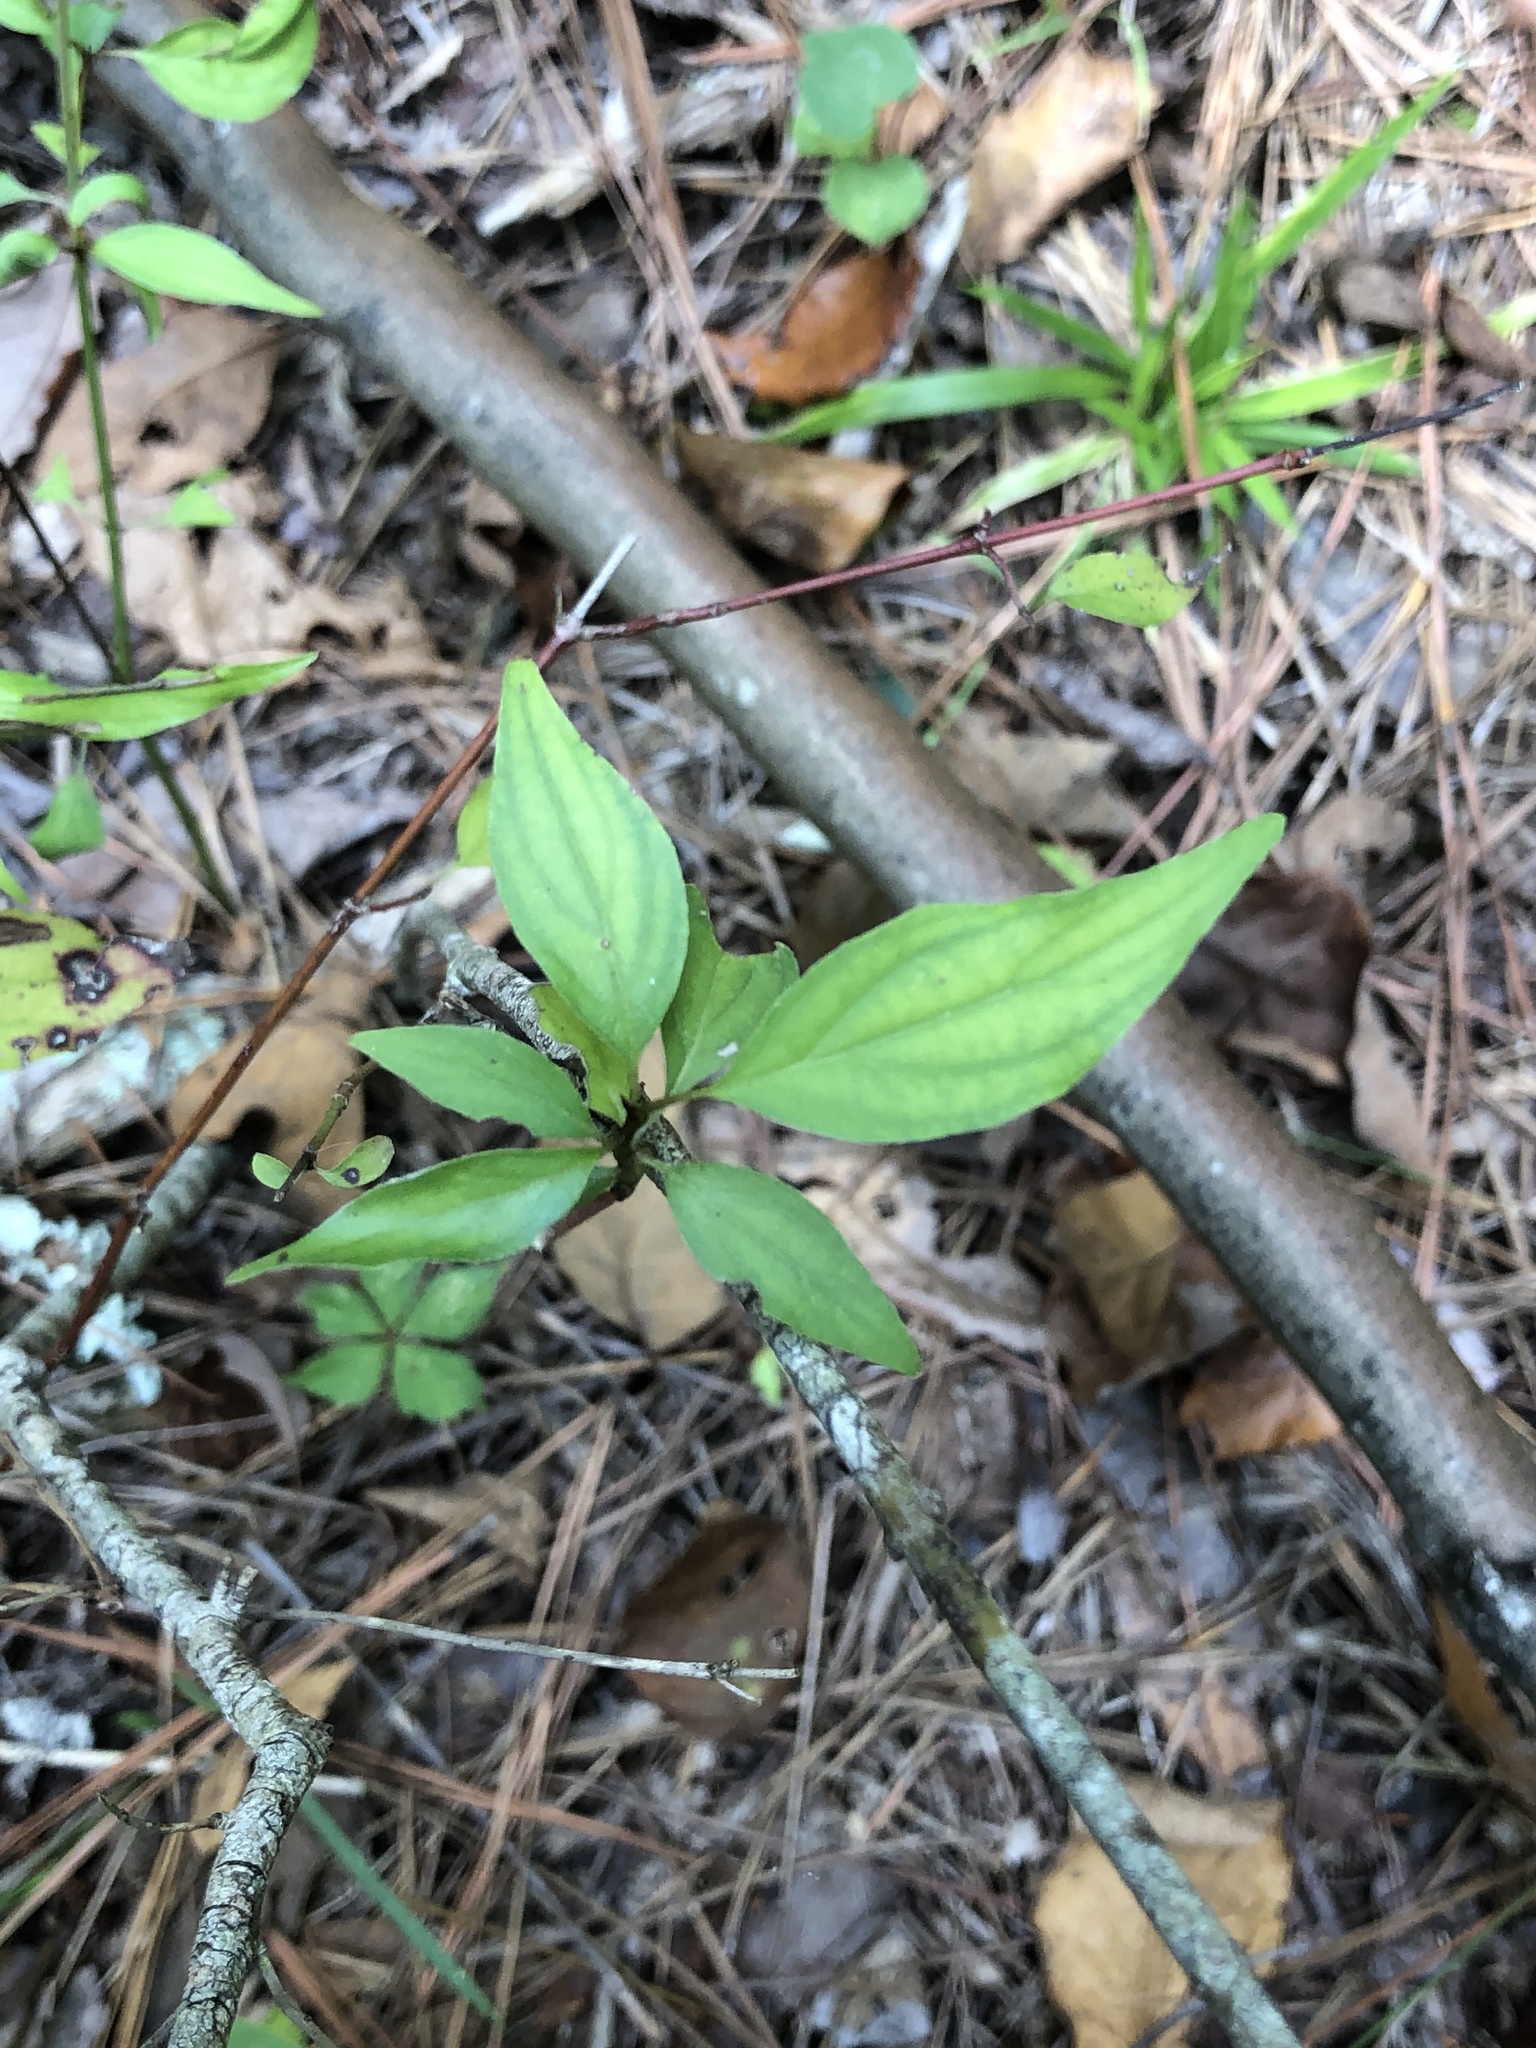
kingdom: Plantae
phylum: Tracheophyta
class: Magnoliopsida
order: Cornales
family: Cornaceae
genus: Cornus
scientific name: Cornus drummondii
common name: Rough-leaf dogwood
